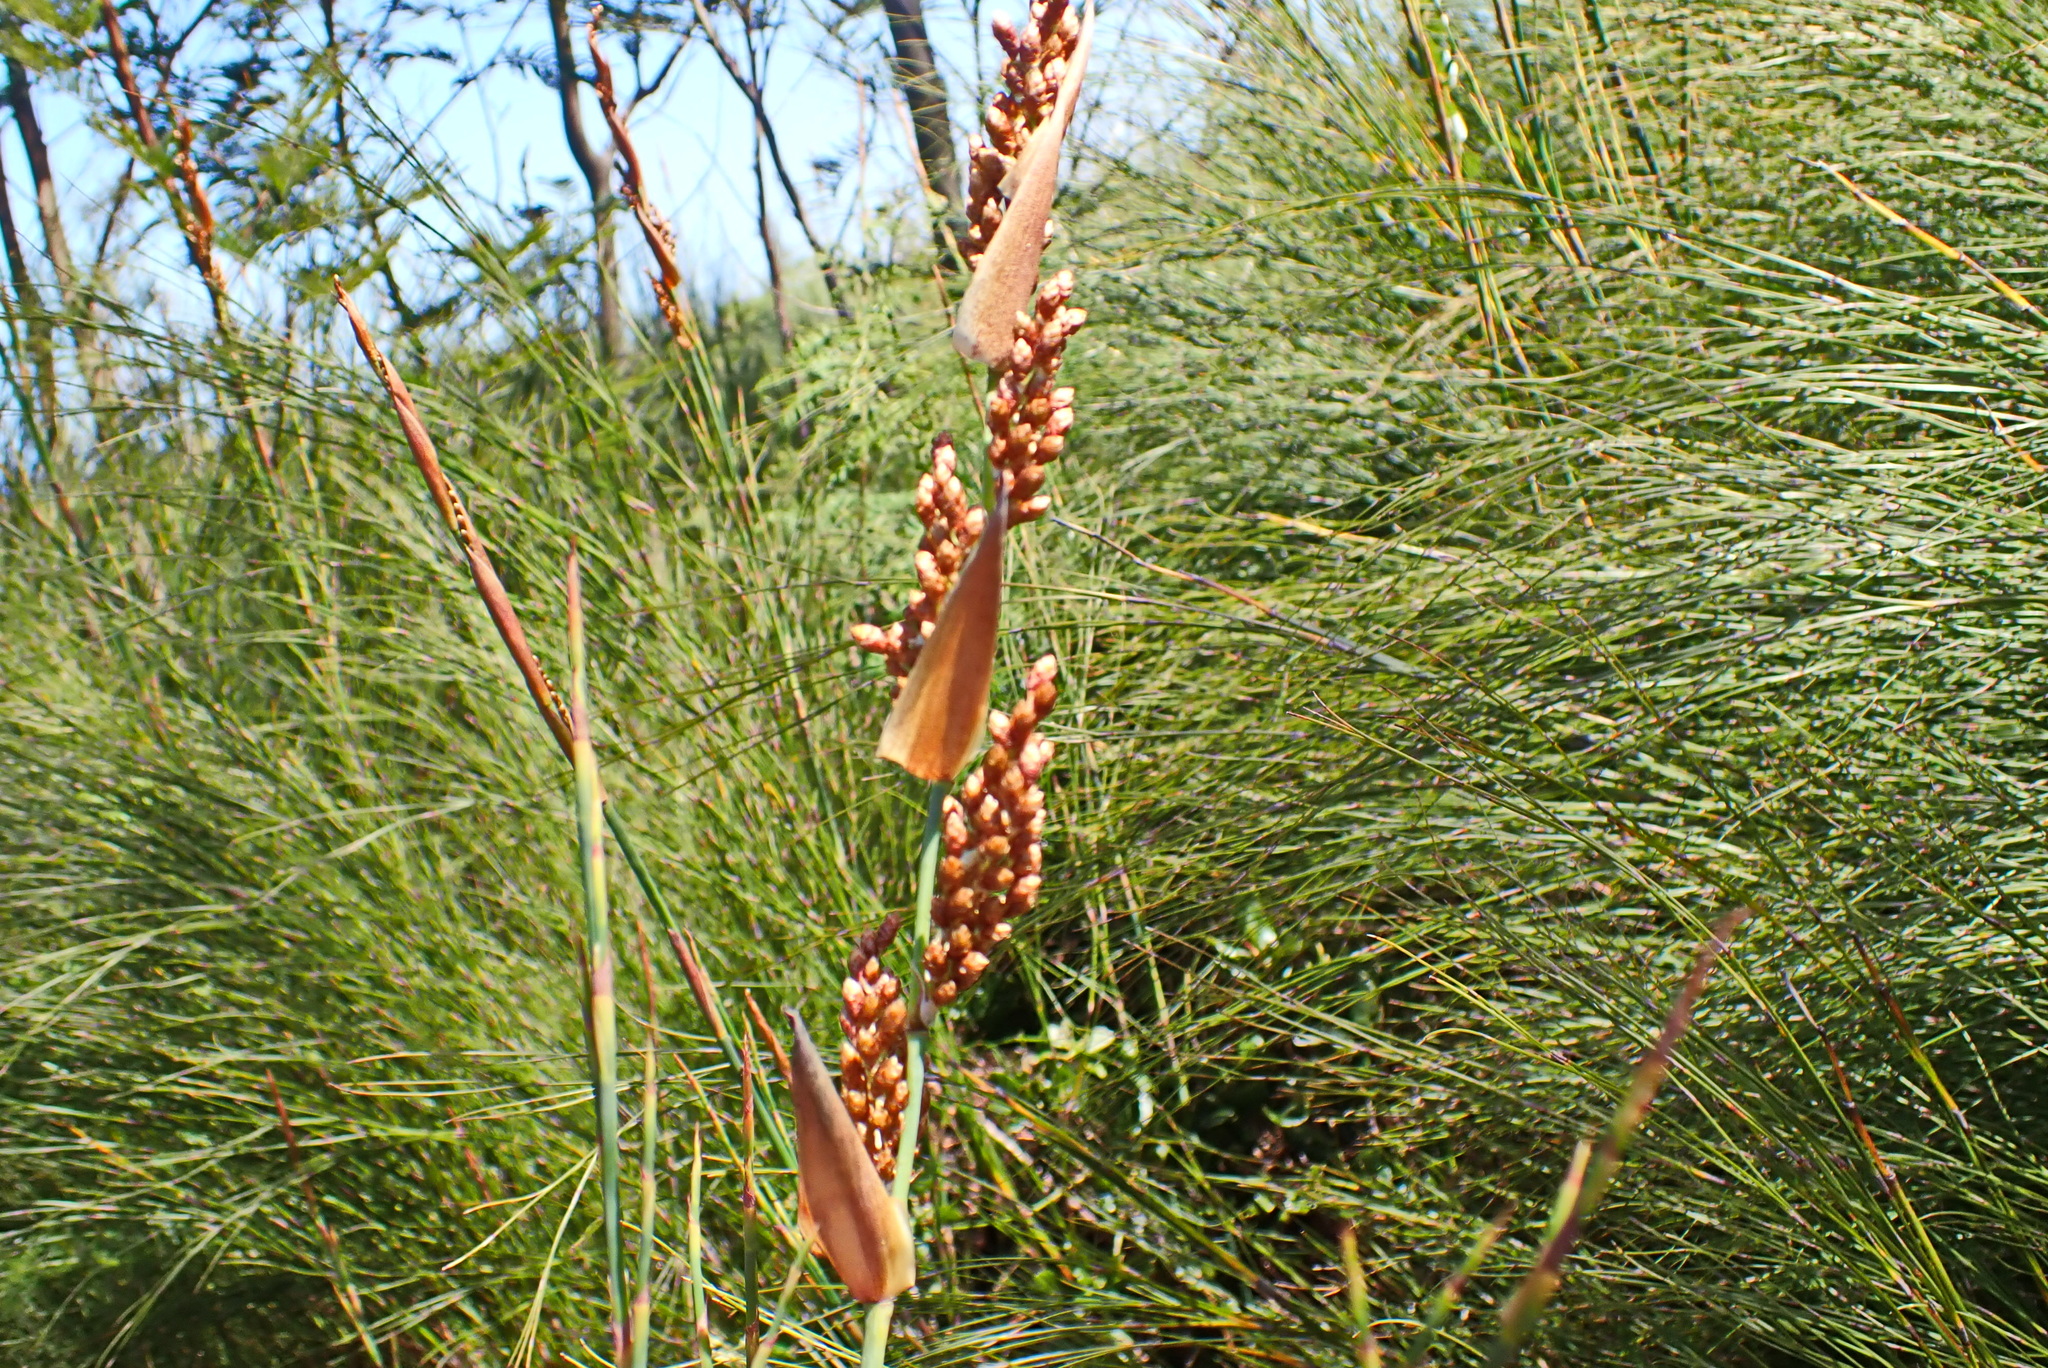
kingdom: Plantae
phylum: Tracheophyta
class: Liliopsida
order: Poales
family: Restionaceae
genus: Cannomois
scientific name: Cannomois virgata
